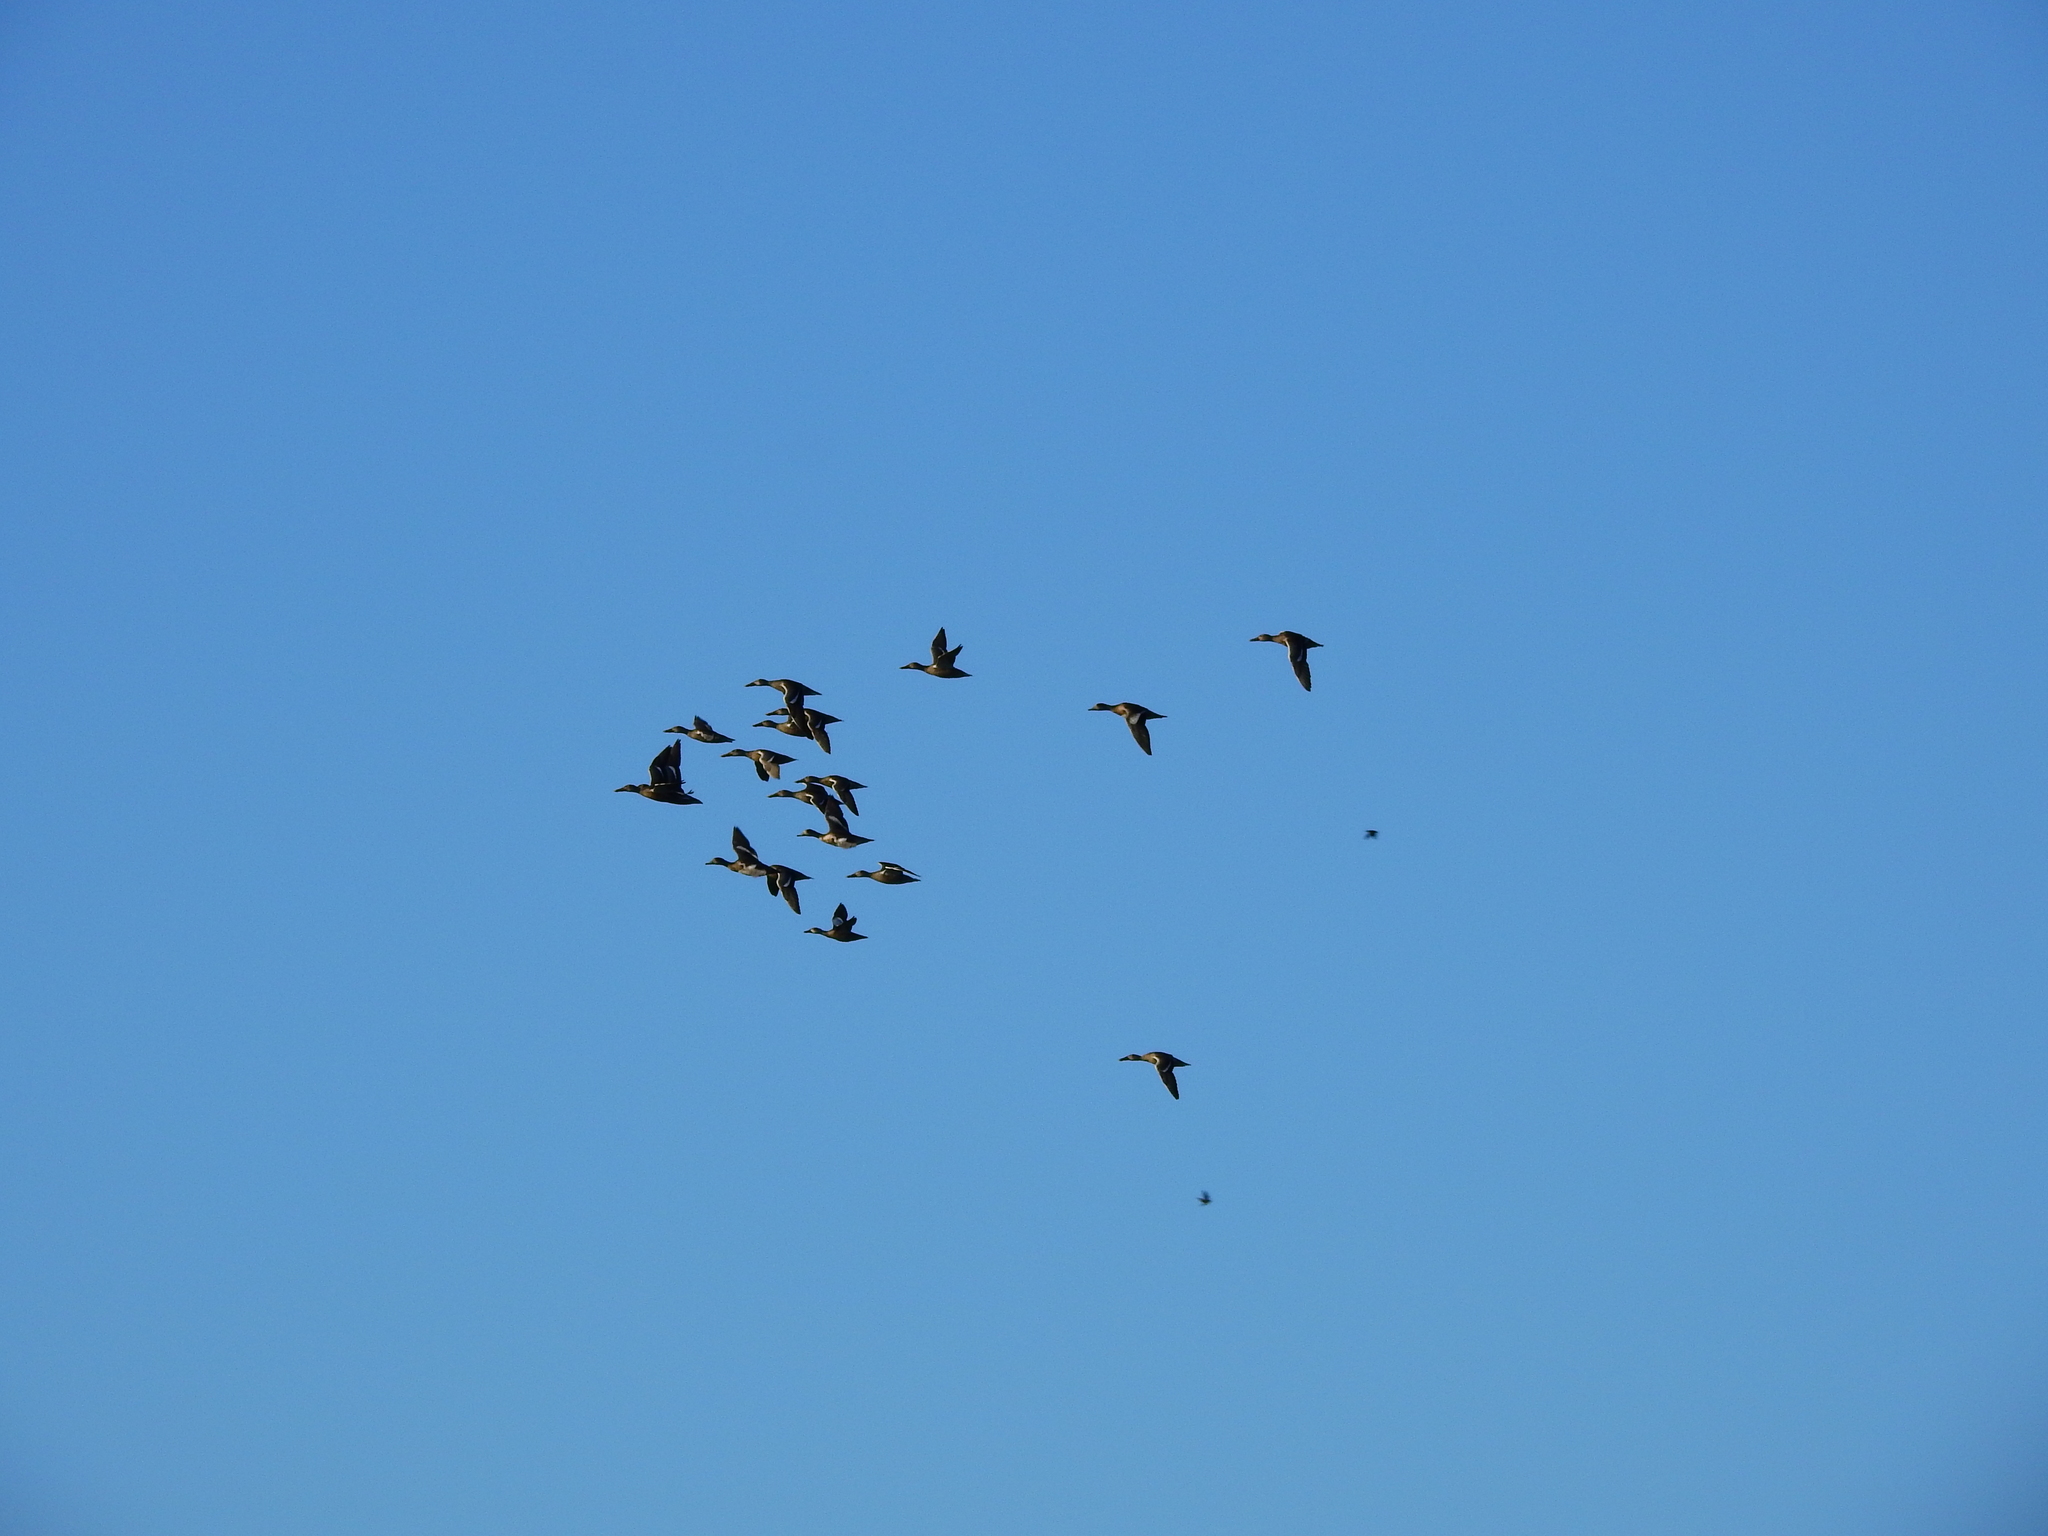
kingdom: Animalia
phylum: Chordata
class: Aves
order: Anseriformes
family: Anatidae
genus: Spatula
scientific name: Spatula clypeata
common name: Northern shoveler
